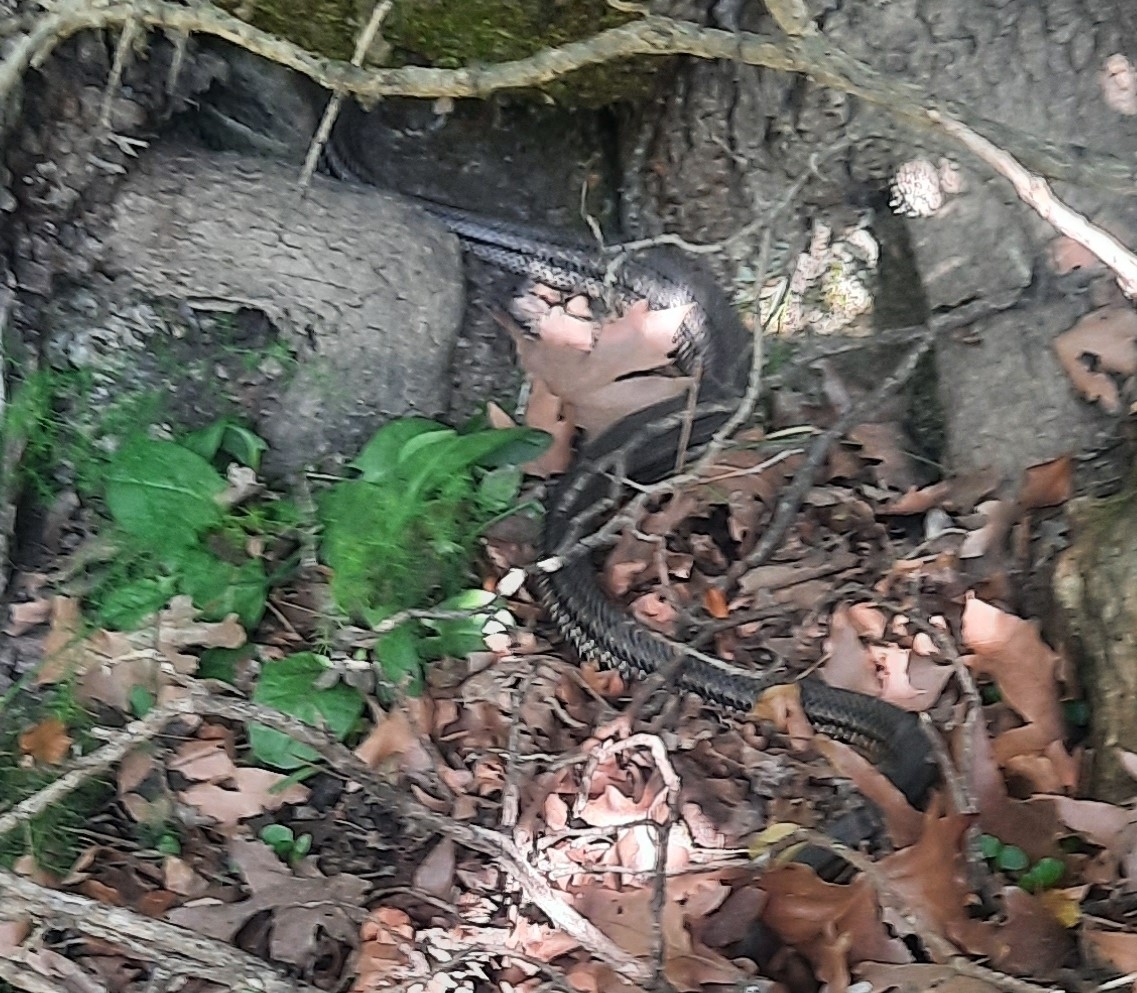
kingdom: Animalia
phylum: Chordata
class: Squamata
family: Colubridae
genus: Elaphe
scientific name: Elaphe quatuorlineata
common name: Four-lined snake
